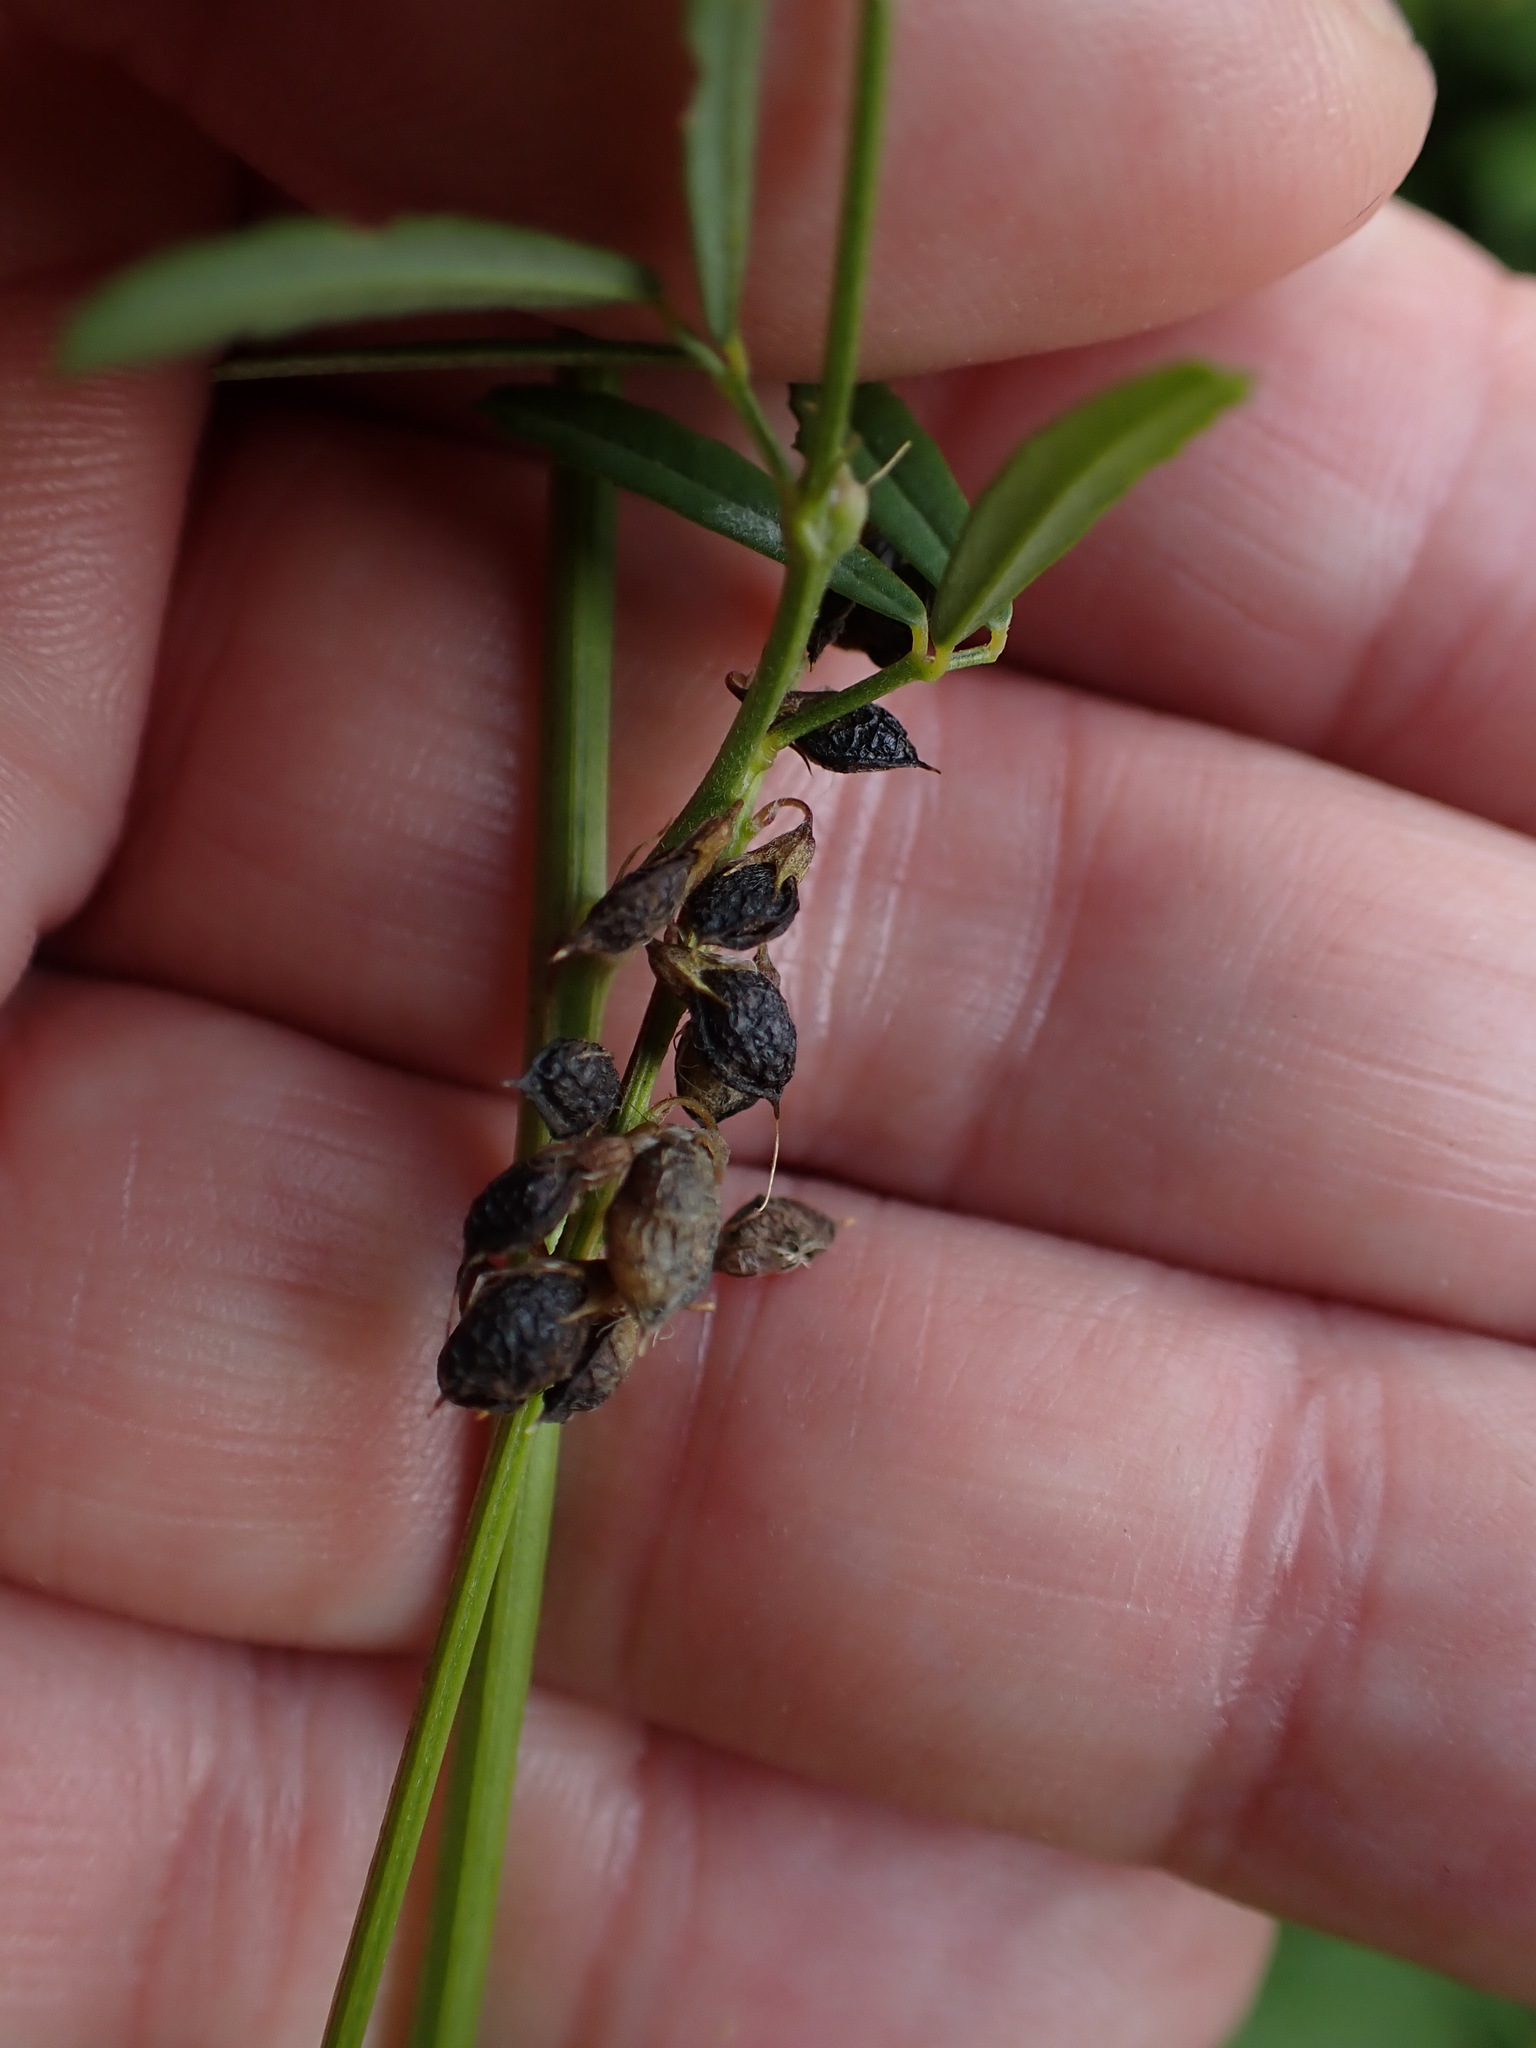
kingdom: Plantae
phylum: Tracheophyta
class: Magnoliopsida
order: Fabales
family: Fabaceae
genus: Melilotus
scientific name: Melilotus altissimus
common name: Tall melilot
